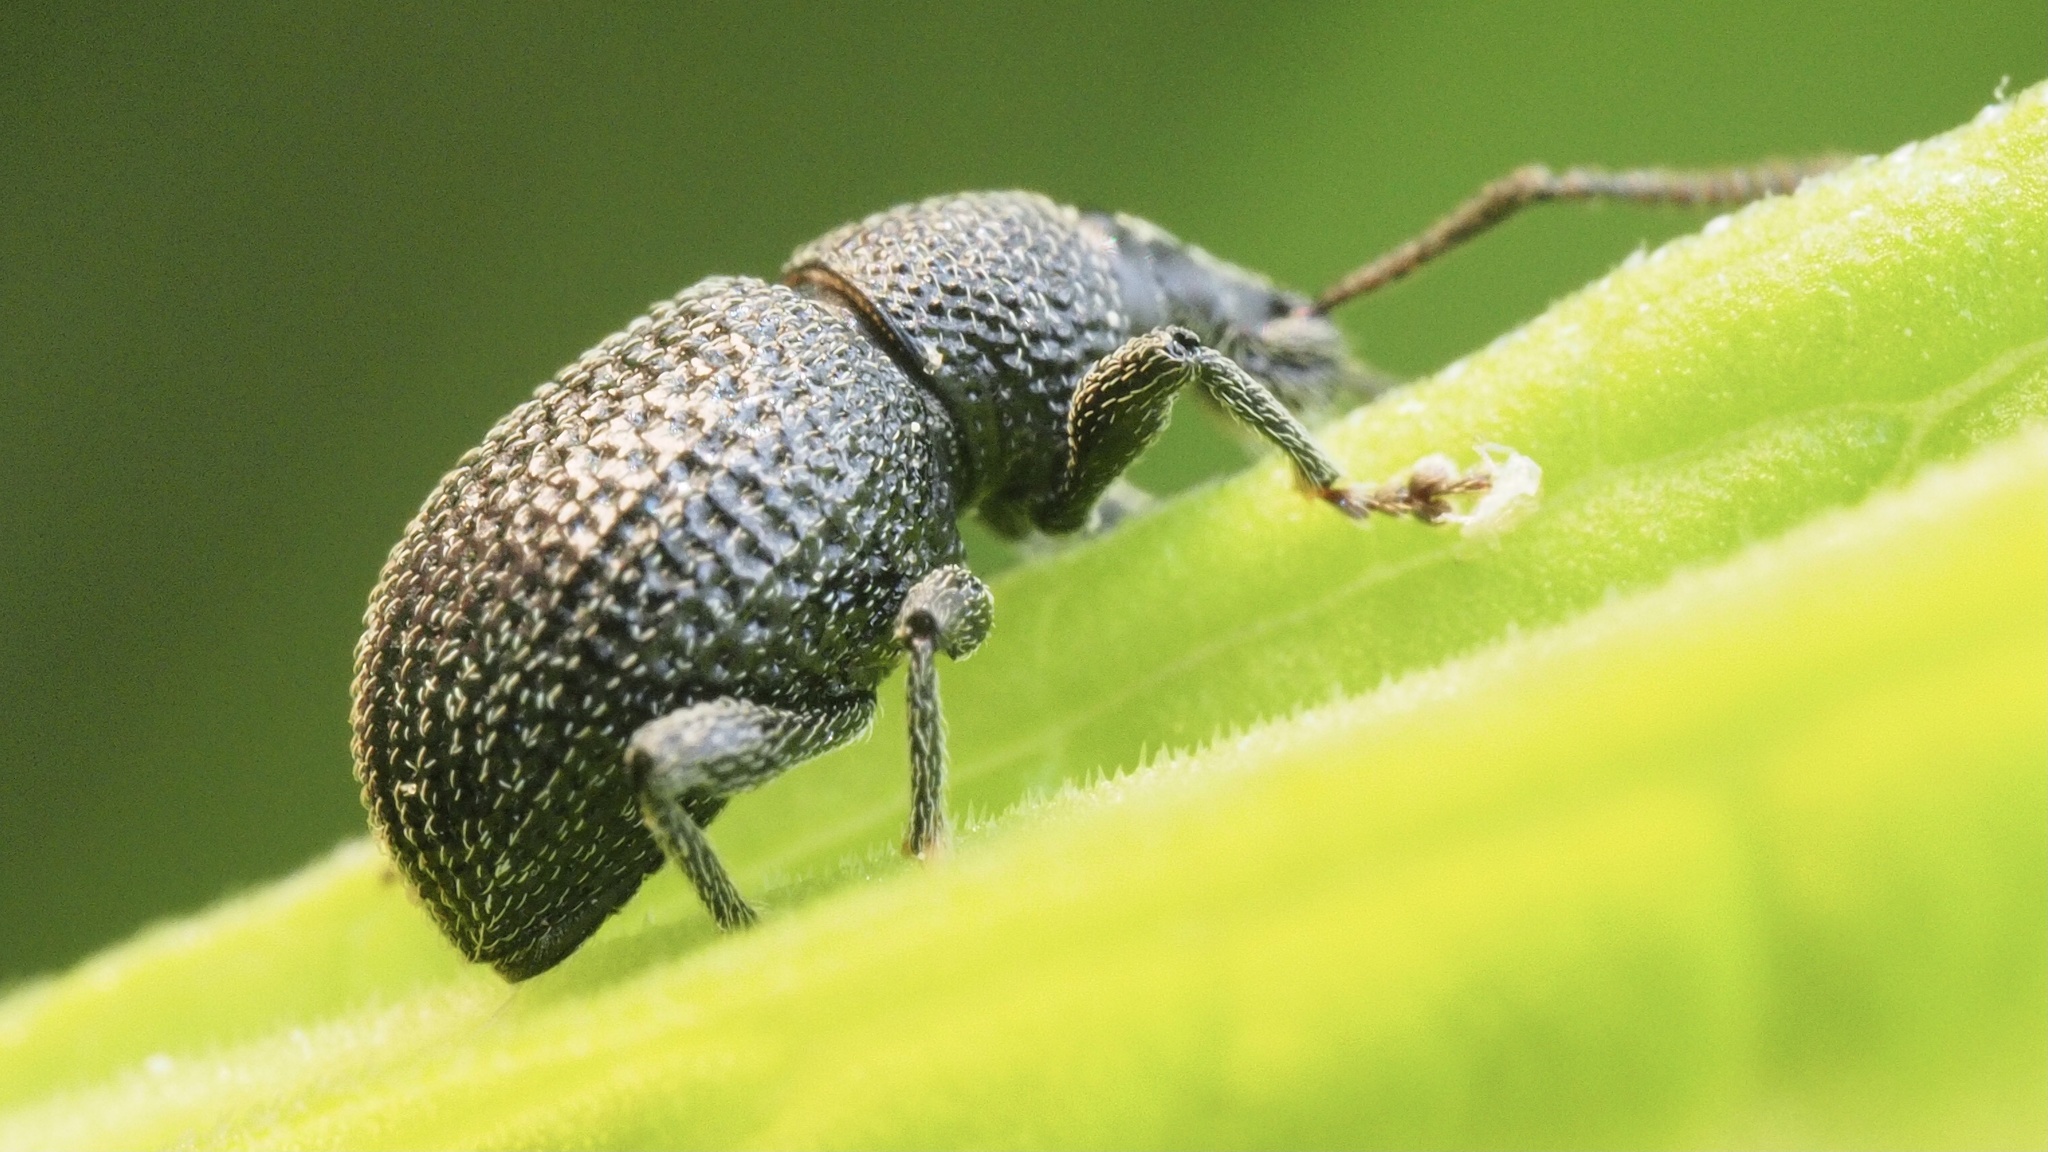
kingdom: Animalia
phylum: Arthropoda
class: Insecta
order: Coleoptera
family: Curculionidae
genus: Otiorhynchus
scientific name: Otiorhynchus pinastri
